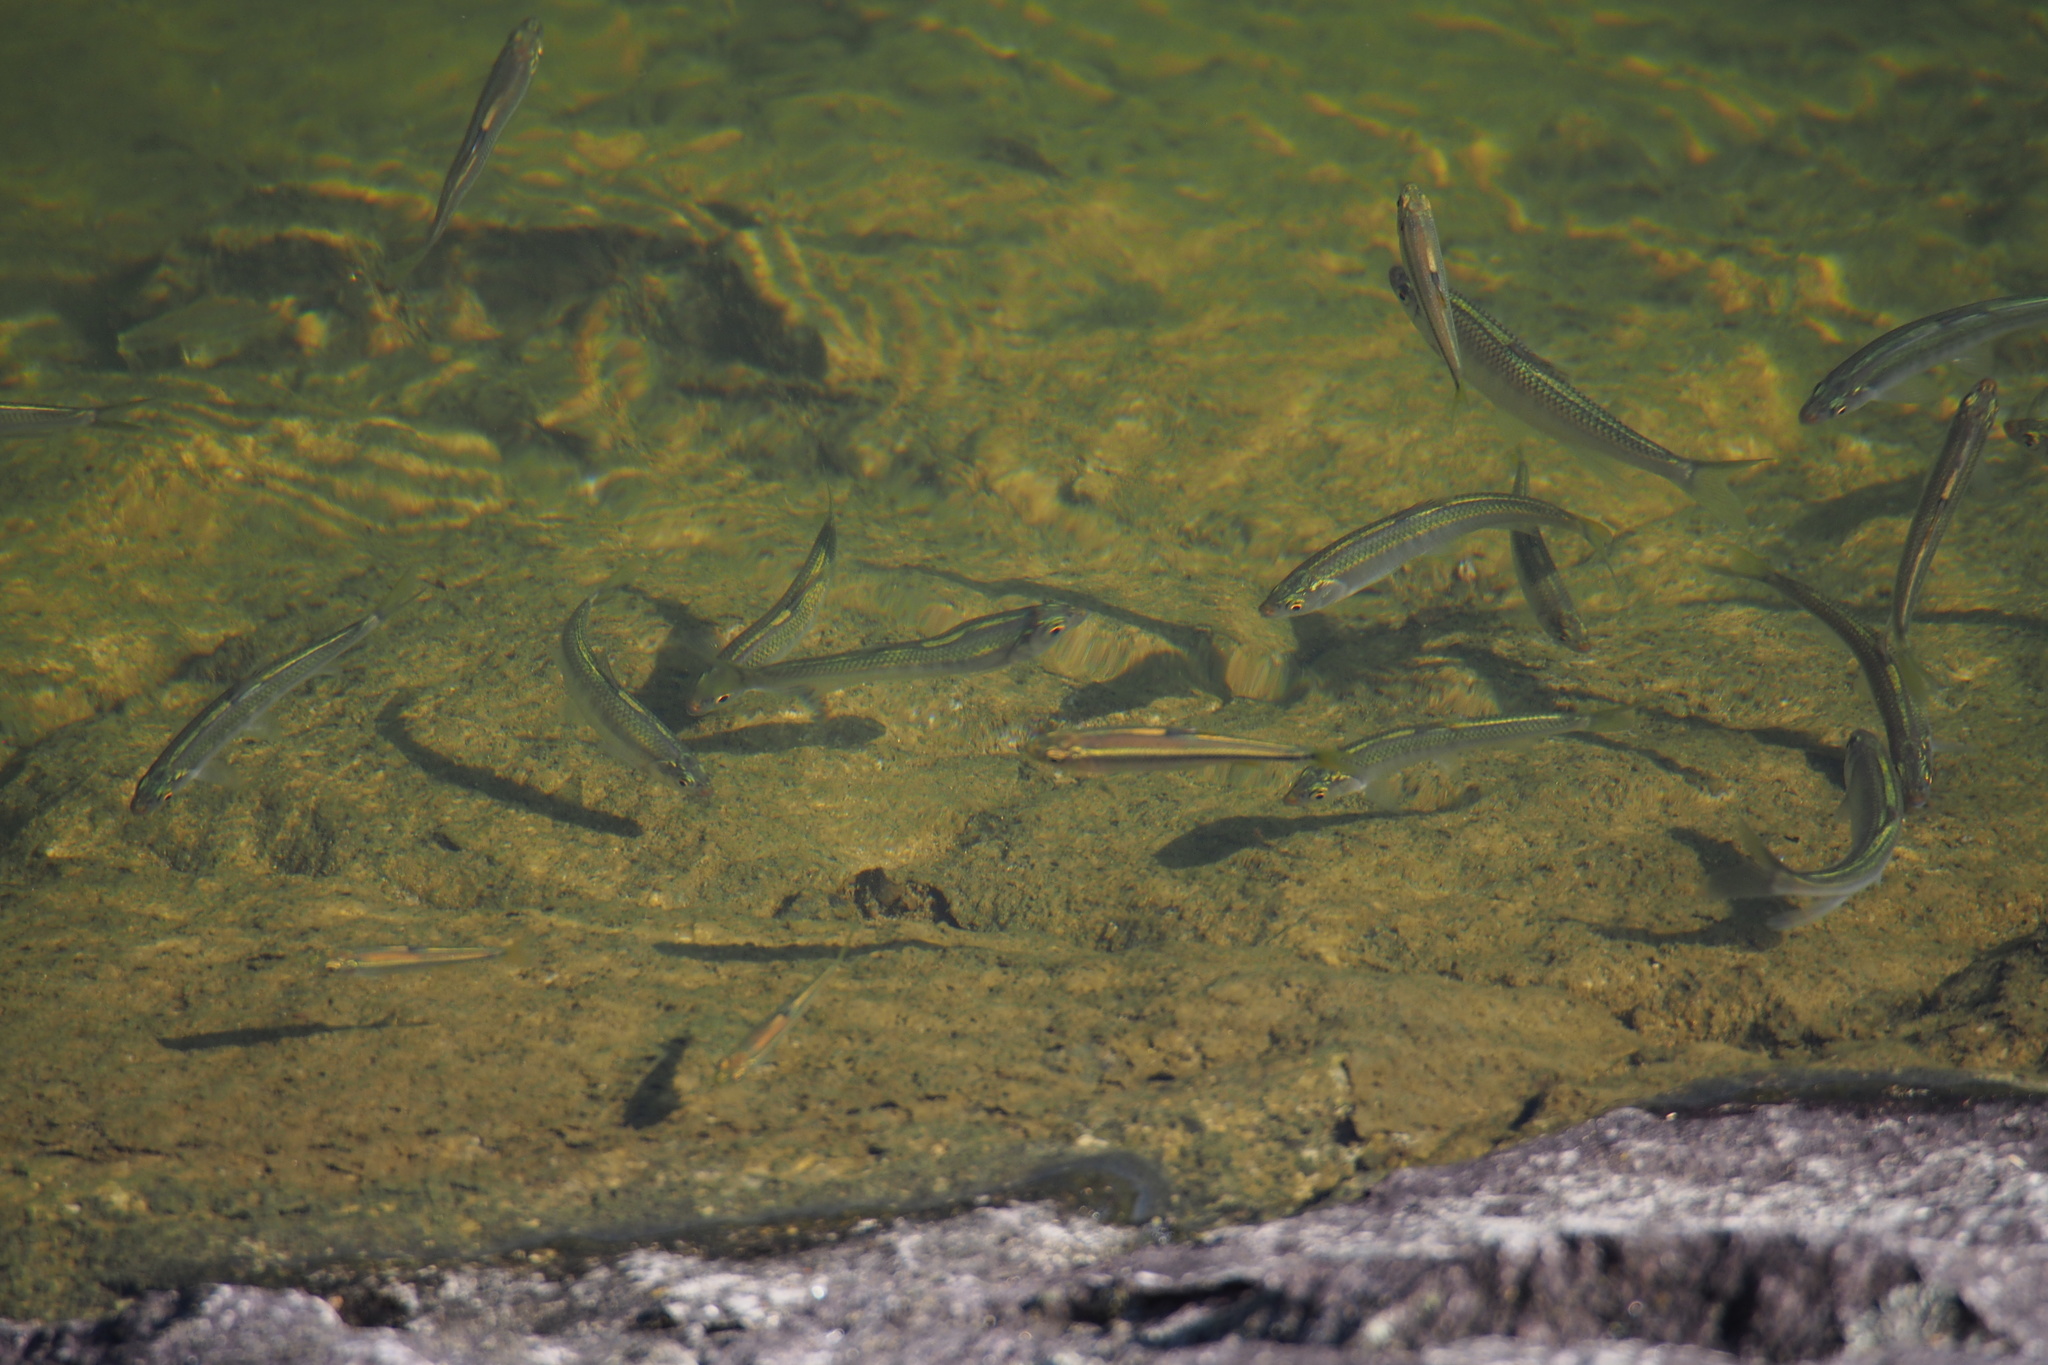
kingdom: Animalia
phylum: Chordata
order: Cypriniformes
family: Cyprinidae
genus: Zacco
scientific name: Zacco platypus
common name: Freshwater minnow
